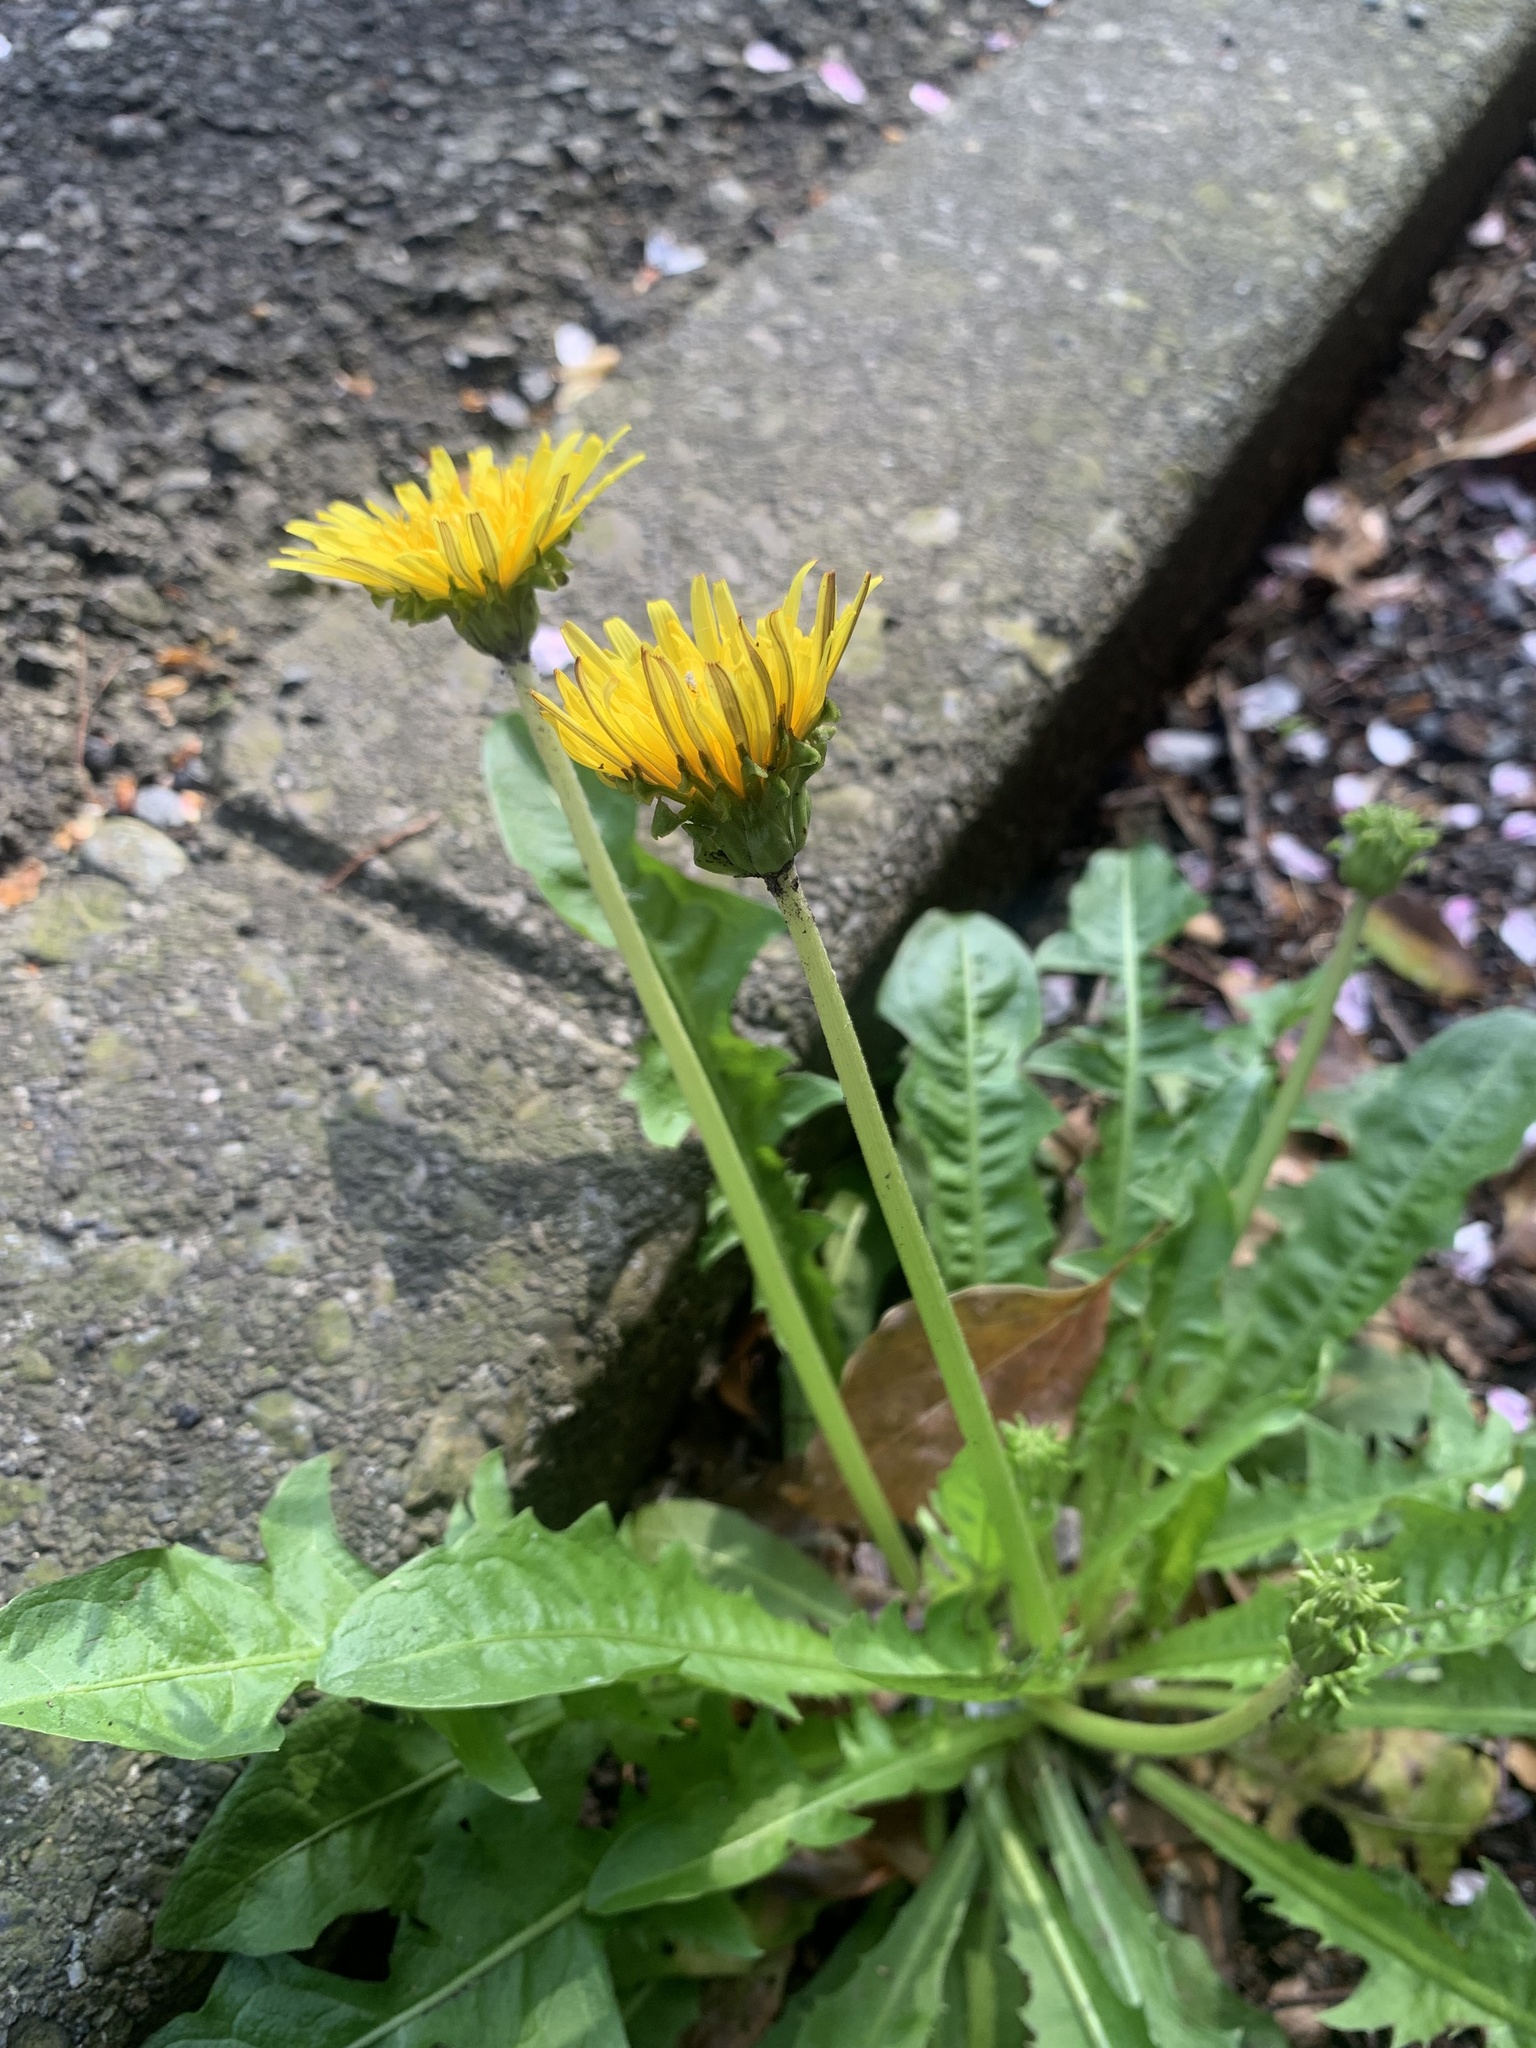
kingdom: Plantae
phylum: Tracheophyta
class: Magnoliopsida
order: Asterales
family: Asteraceae
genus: Taraxacum
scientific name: Taraxacum platycarpum
